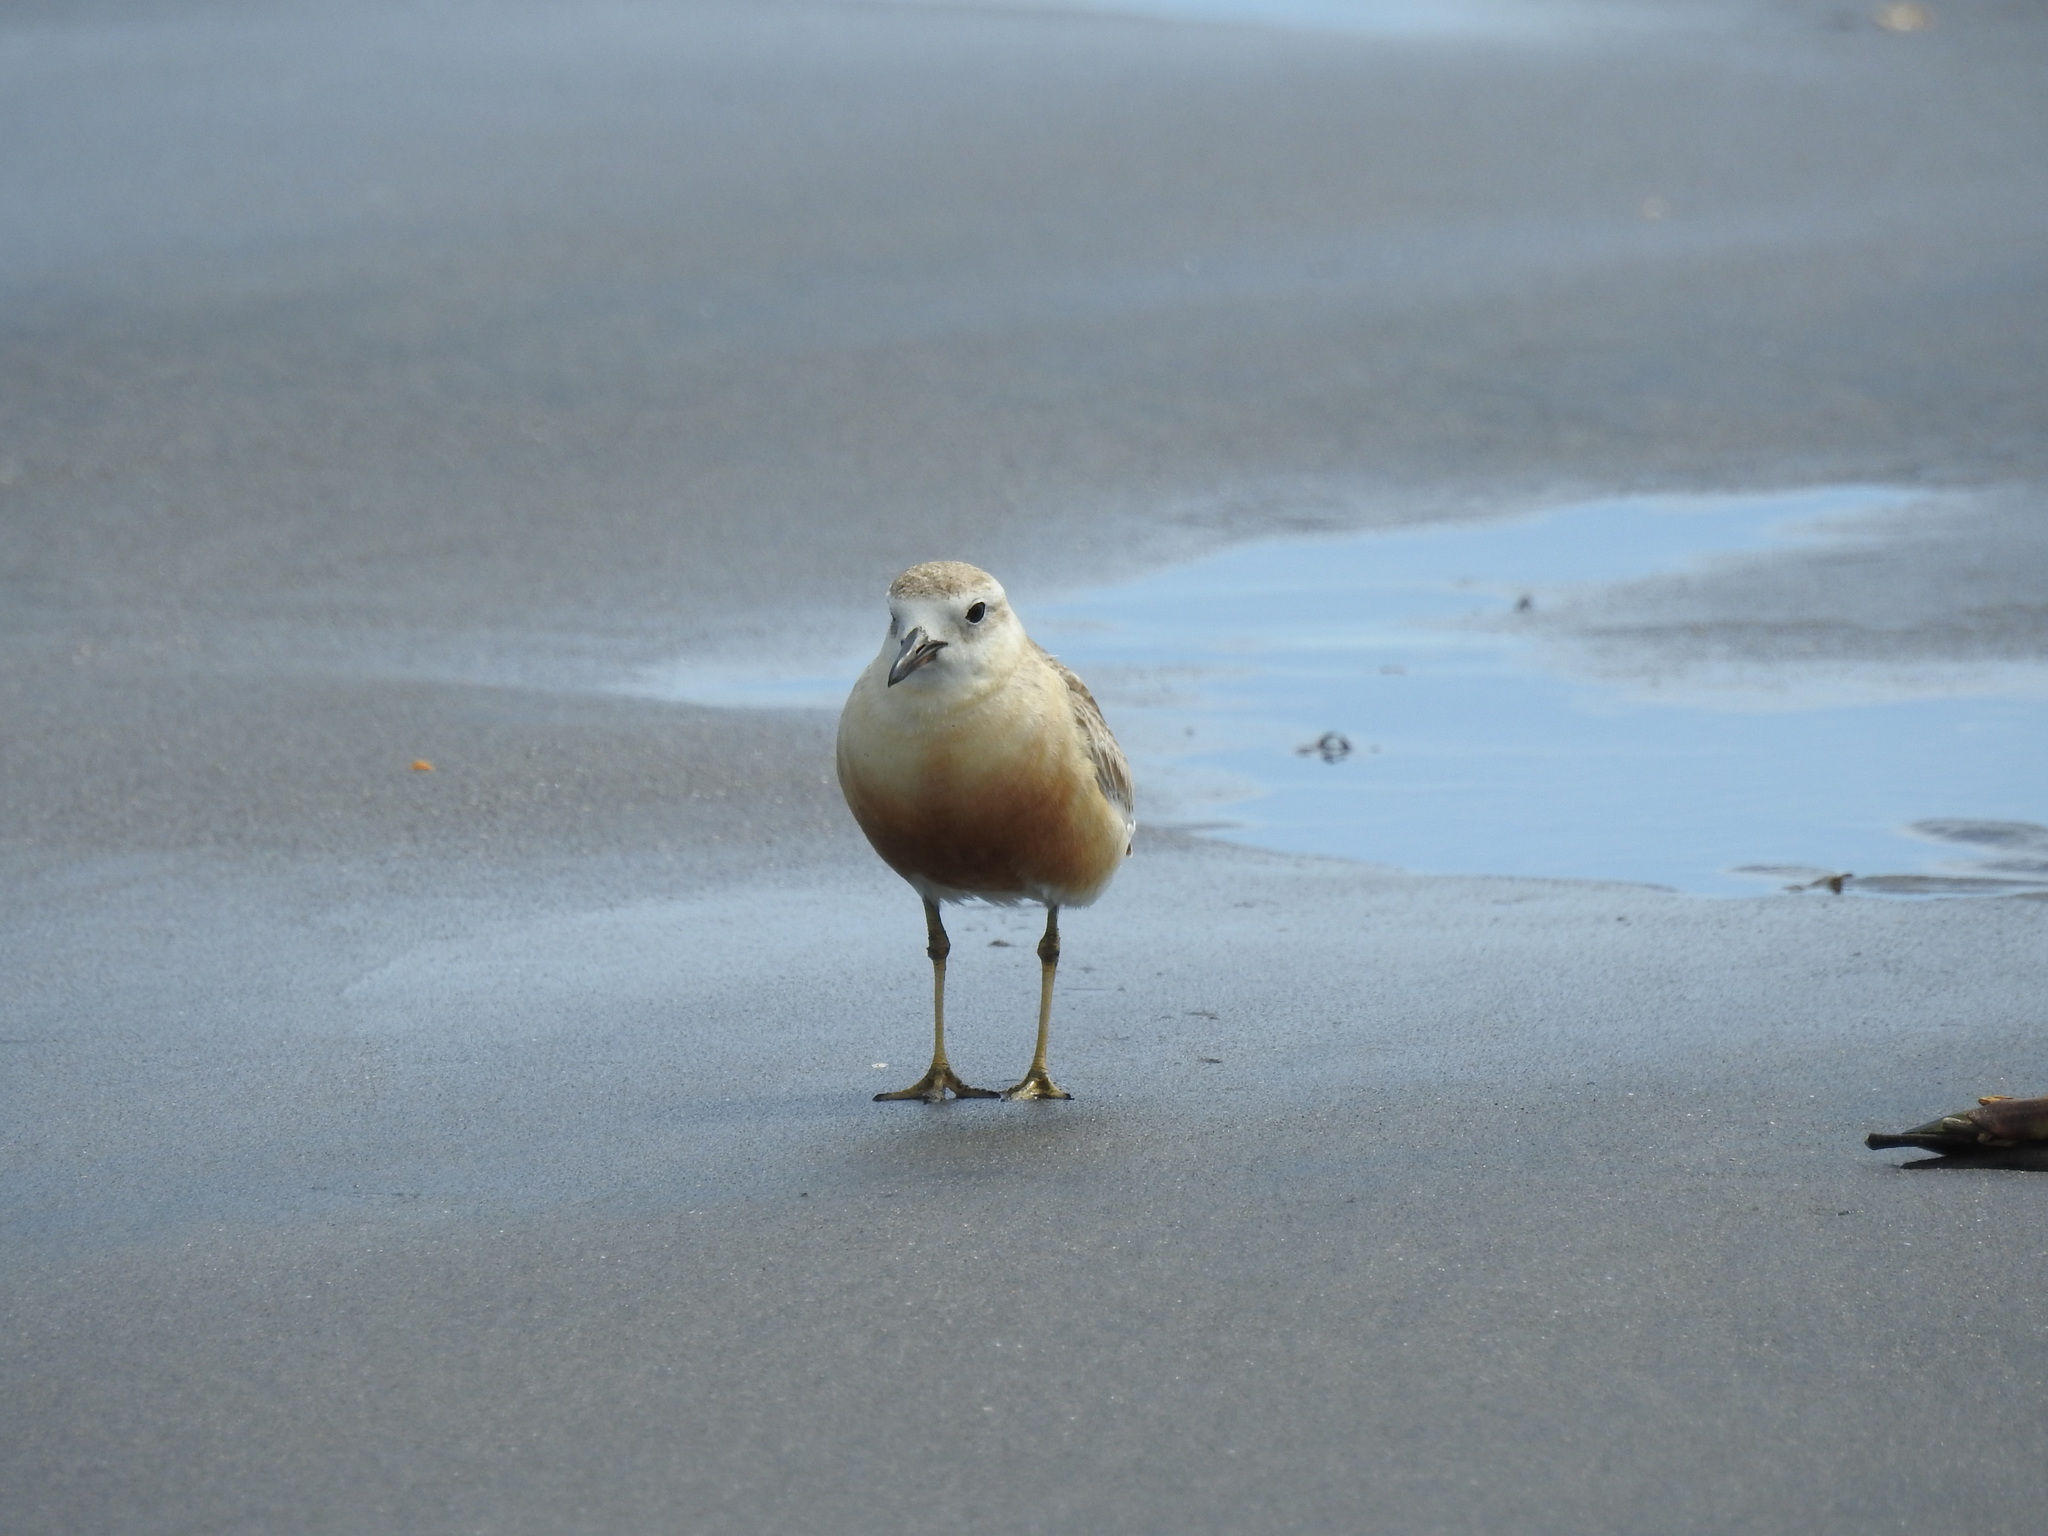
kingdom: Animalia
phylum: Chordata
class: Aves
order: Charadriiformes
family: Charadriidae
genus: Anarhynchus
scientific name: Anarhynchus
